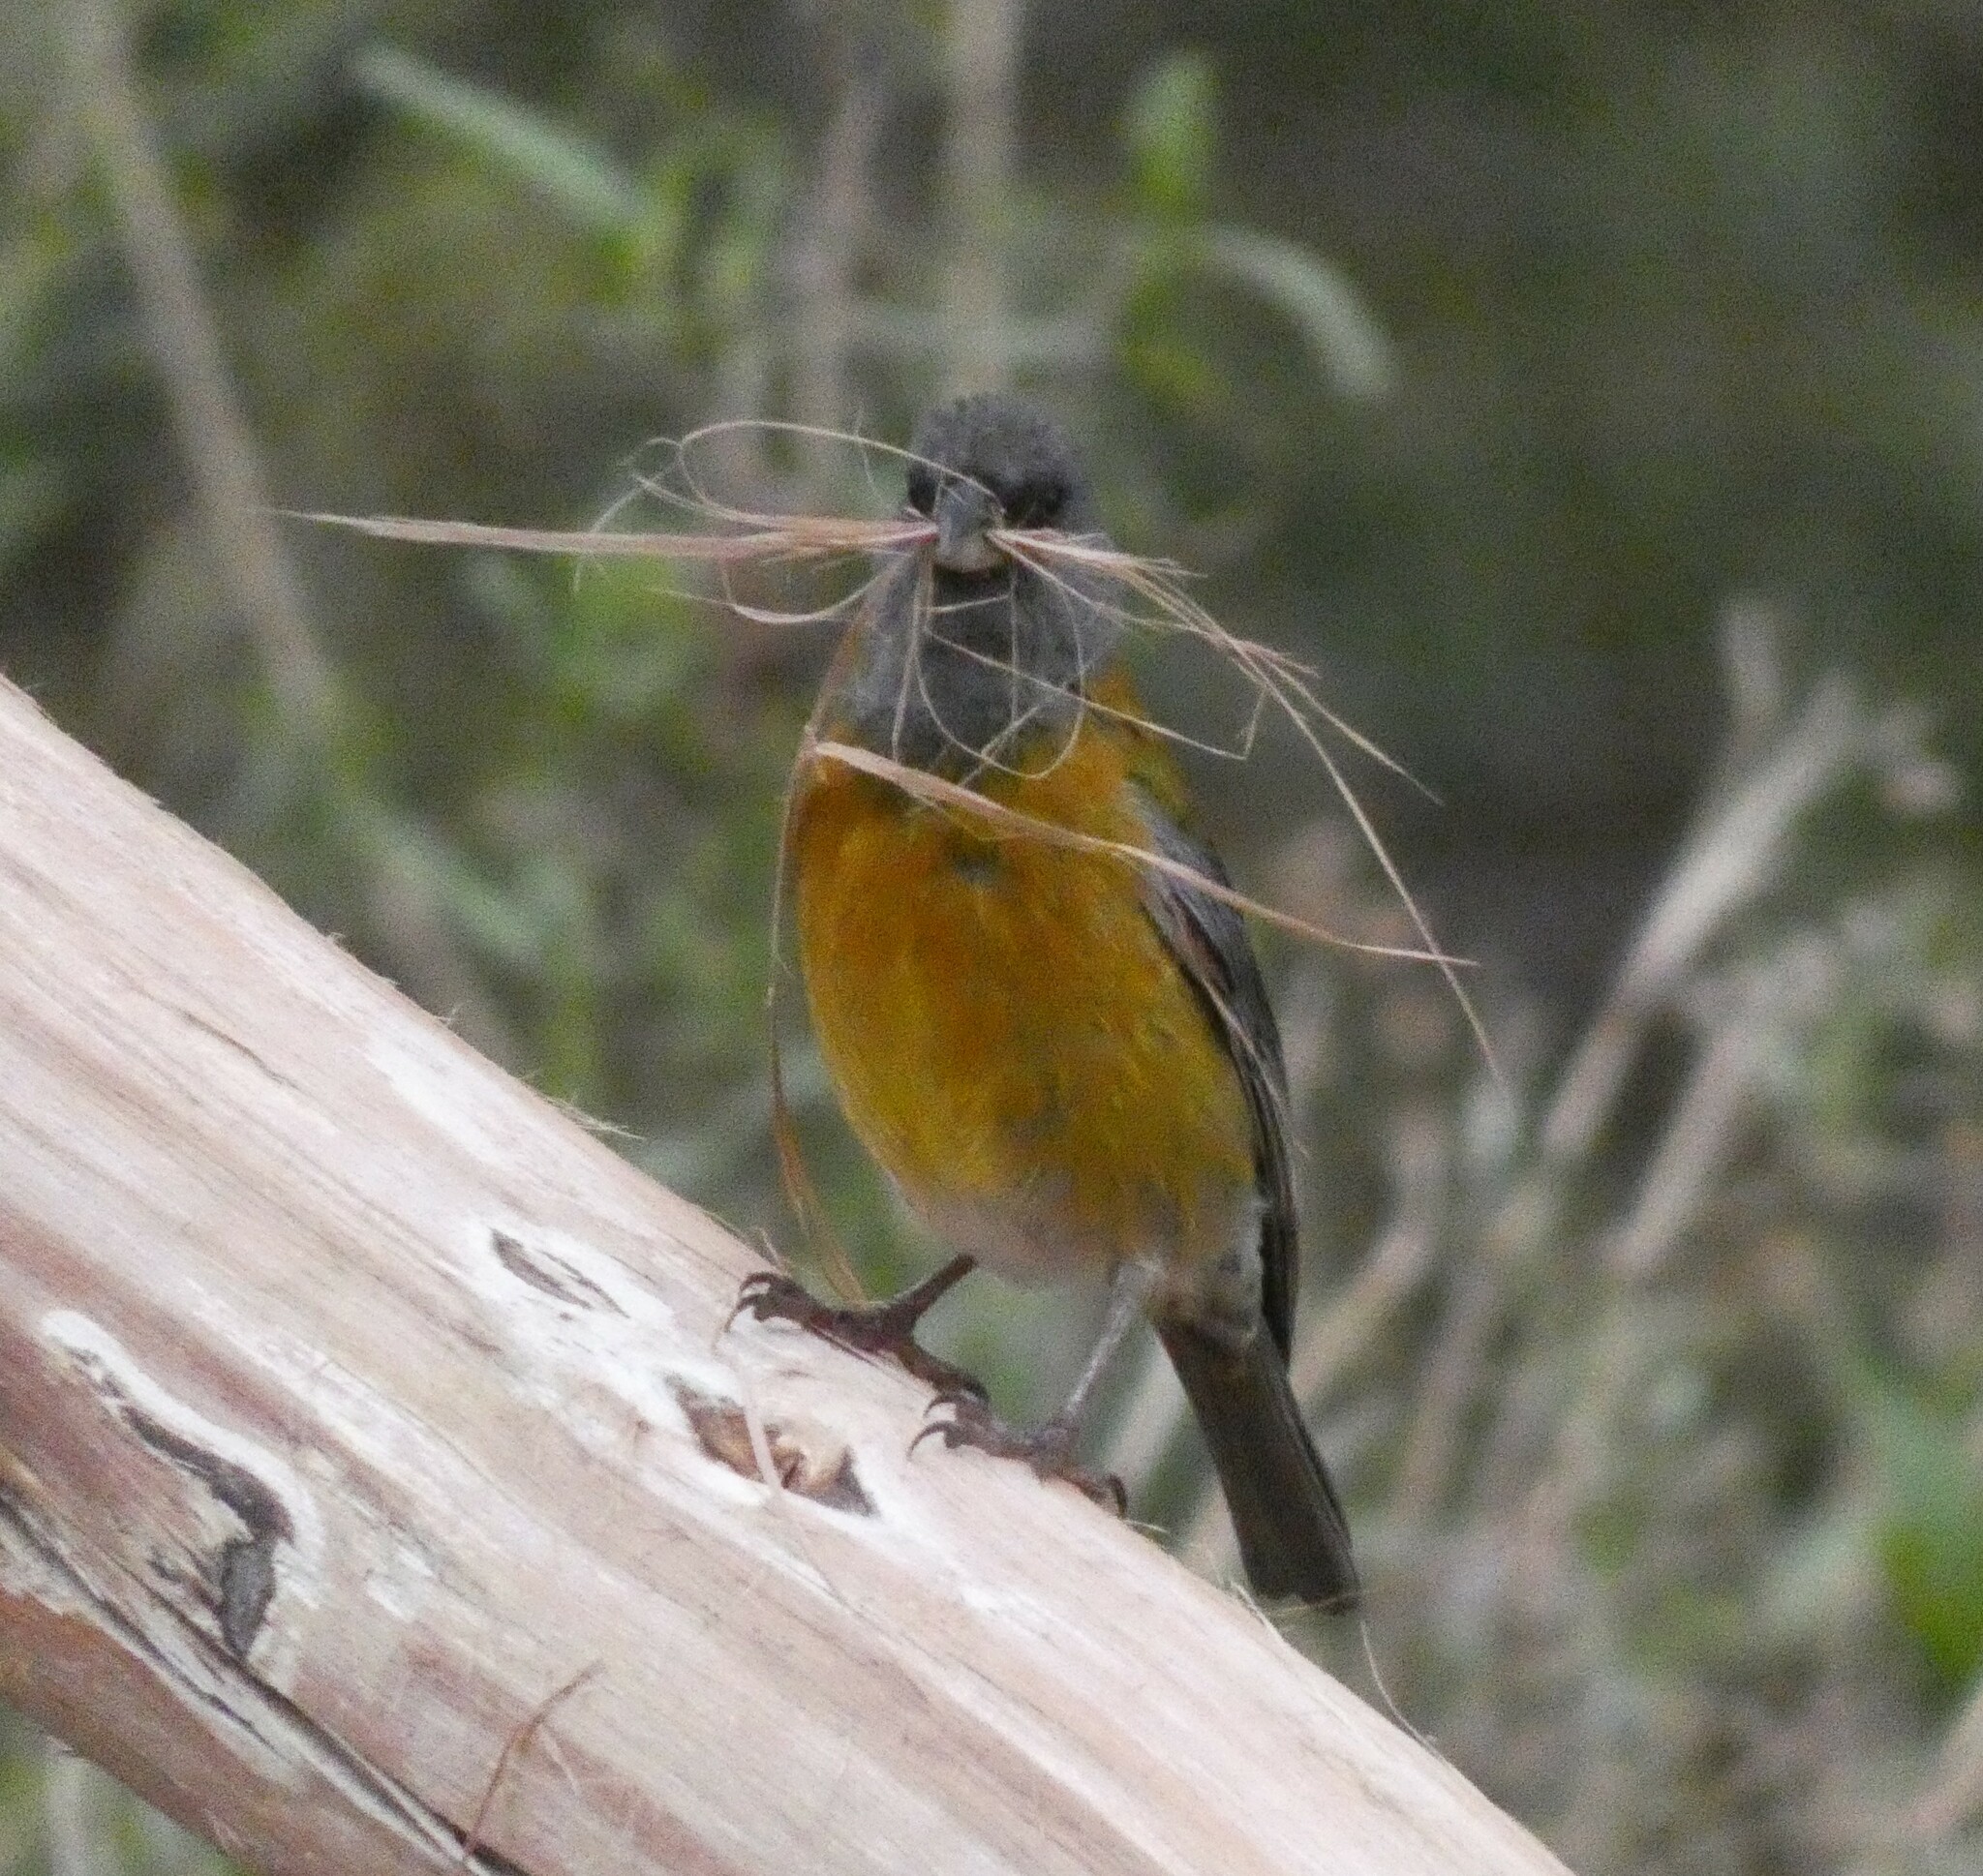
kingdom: Animalia
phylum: Chordata
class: Aves
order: Passeriformes
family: Thraupidae
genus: Phrygilus
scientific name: Phrygilus punensis
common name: Peruvian sierra finch
